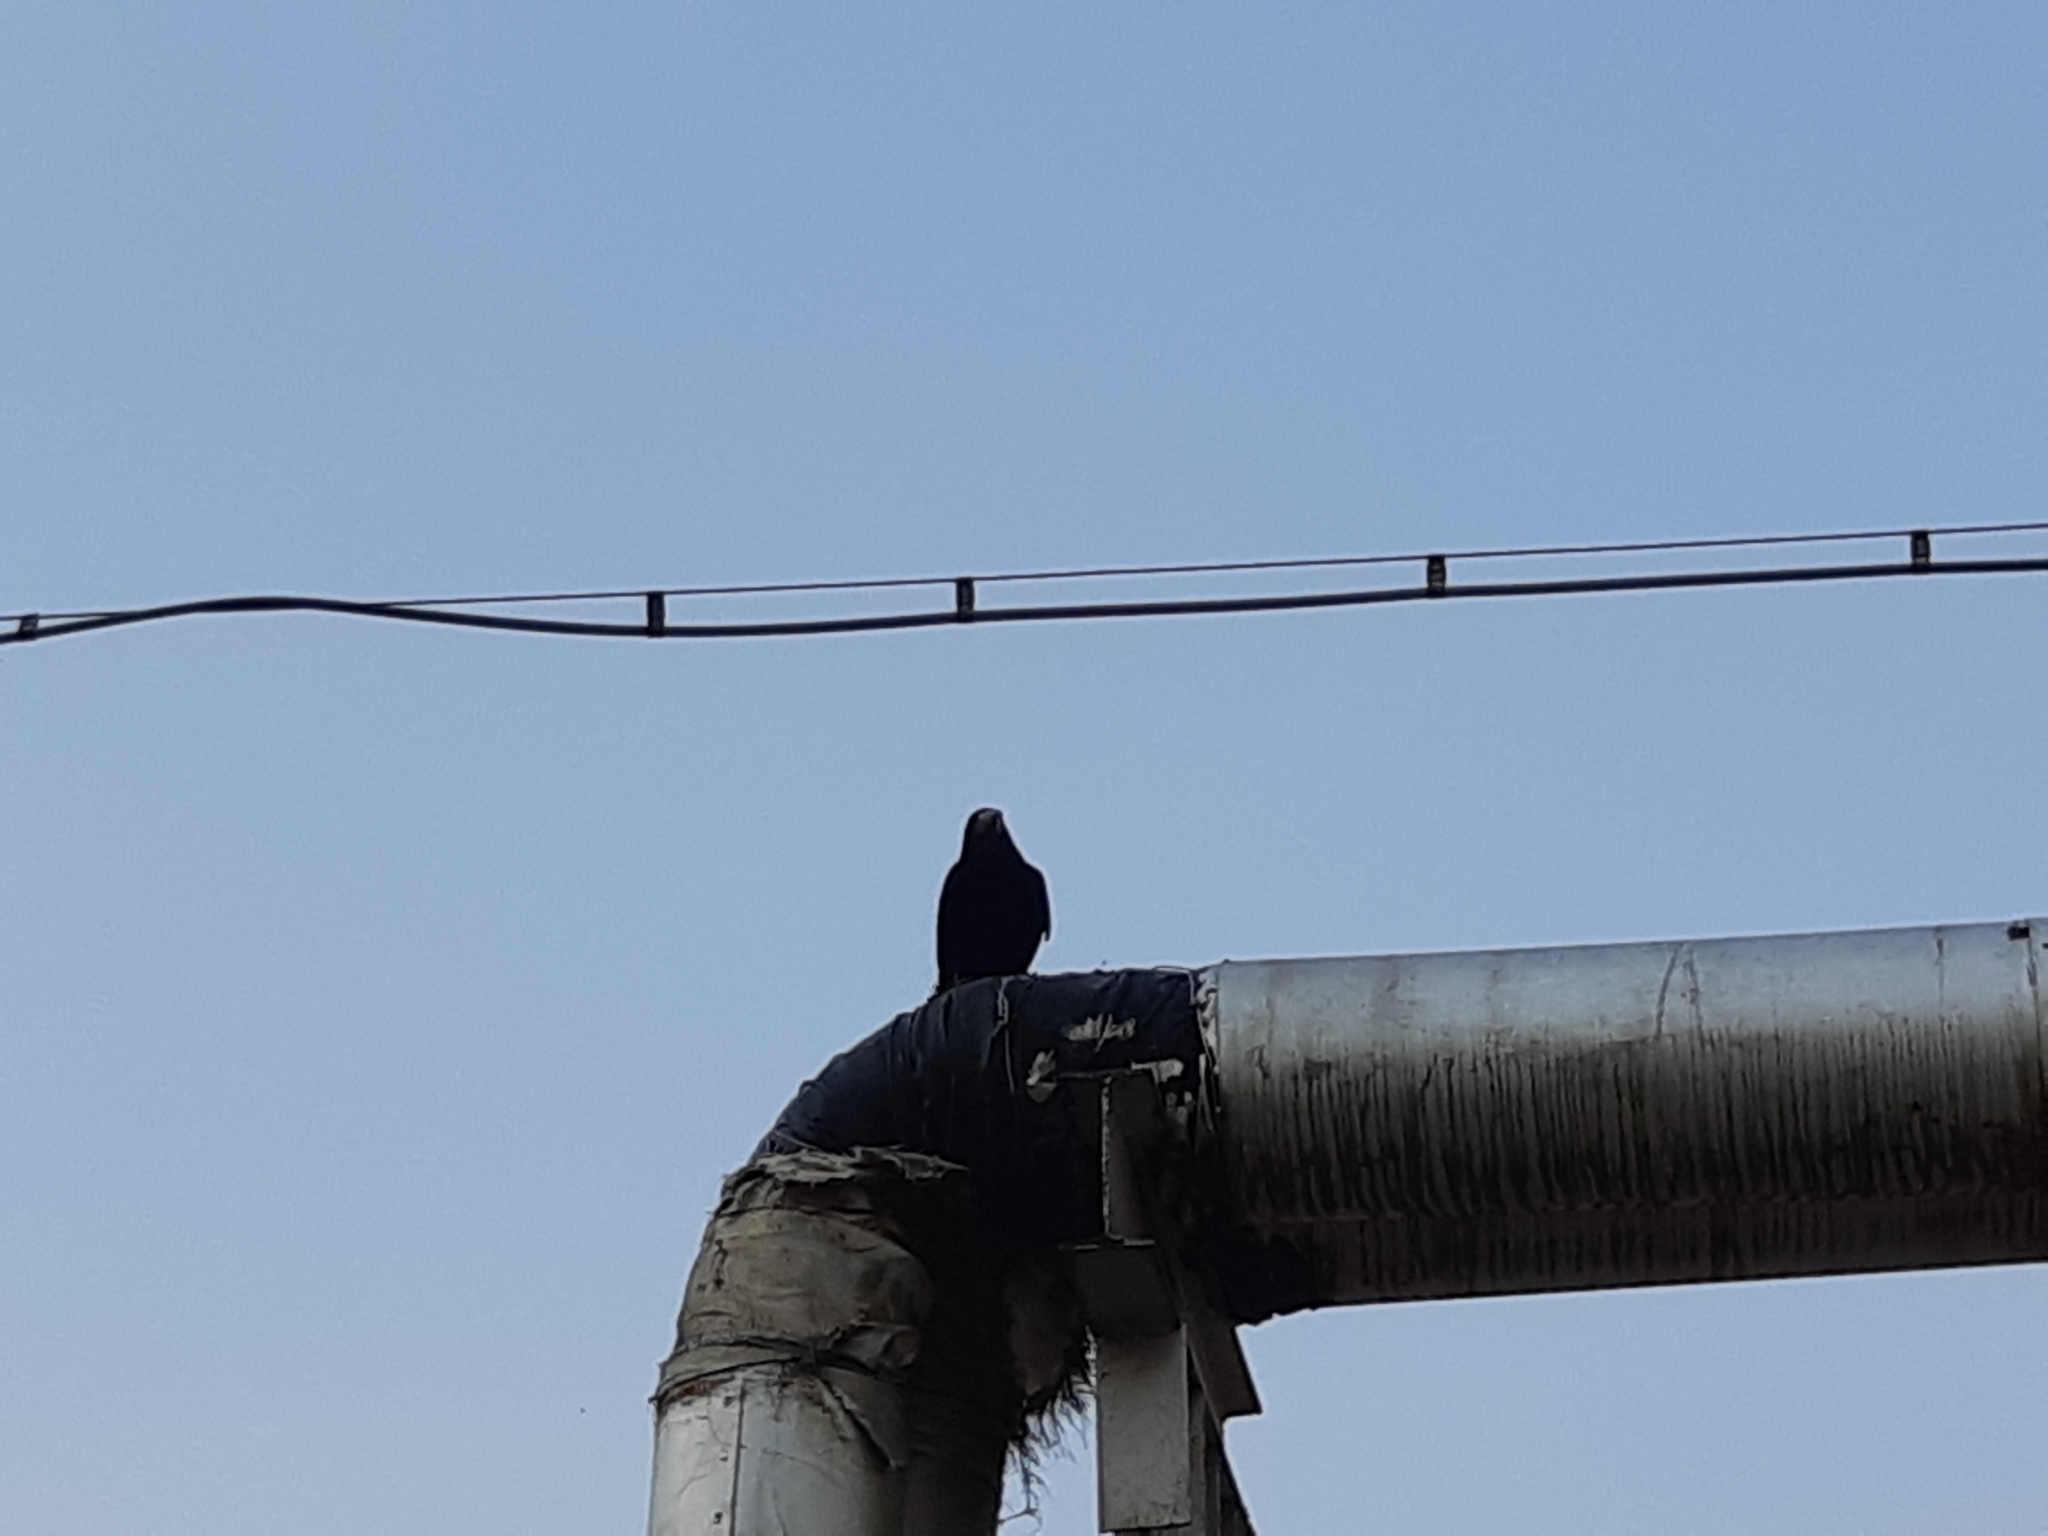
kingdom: Animalia
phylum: Chordata
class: Aves
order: Passeriformes
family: Corvidae
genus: Corvus
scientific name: Corvus frugilegus
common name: Rook
